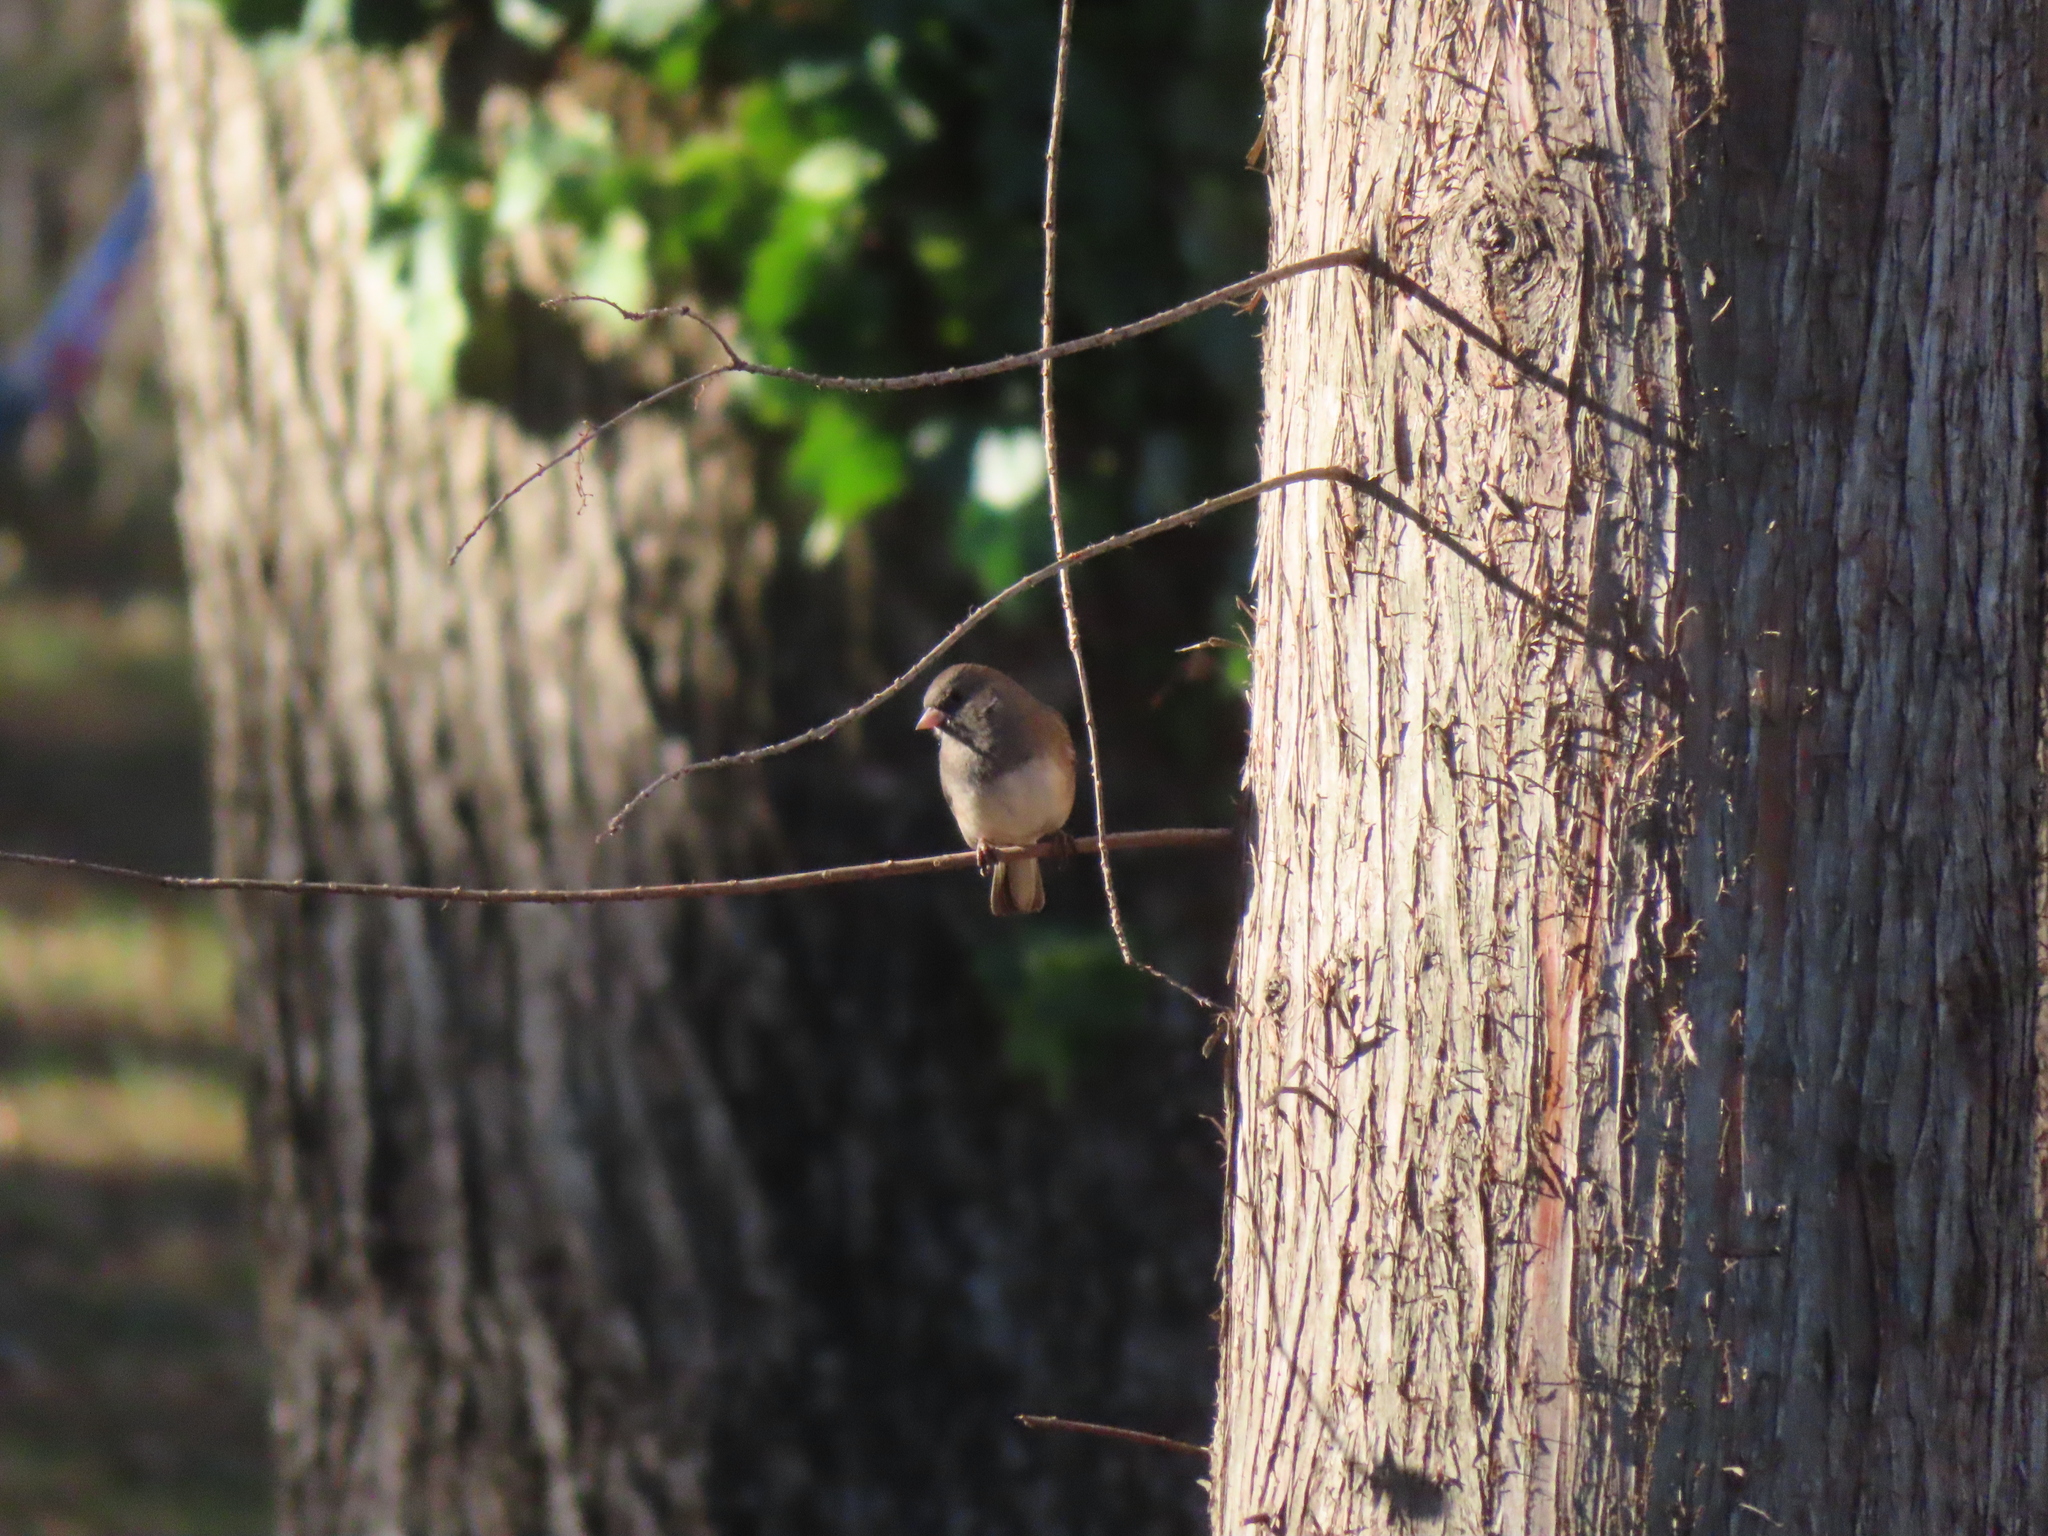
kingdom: Animalia
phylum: Chordata
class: Aves
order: Passeriformes
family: Passerellidae
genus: Junco
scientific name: Junco hyemalis
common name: Dark-eyed junco
